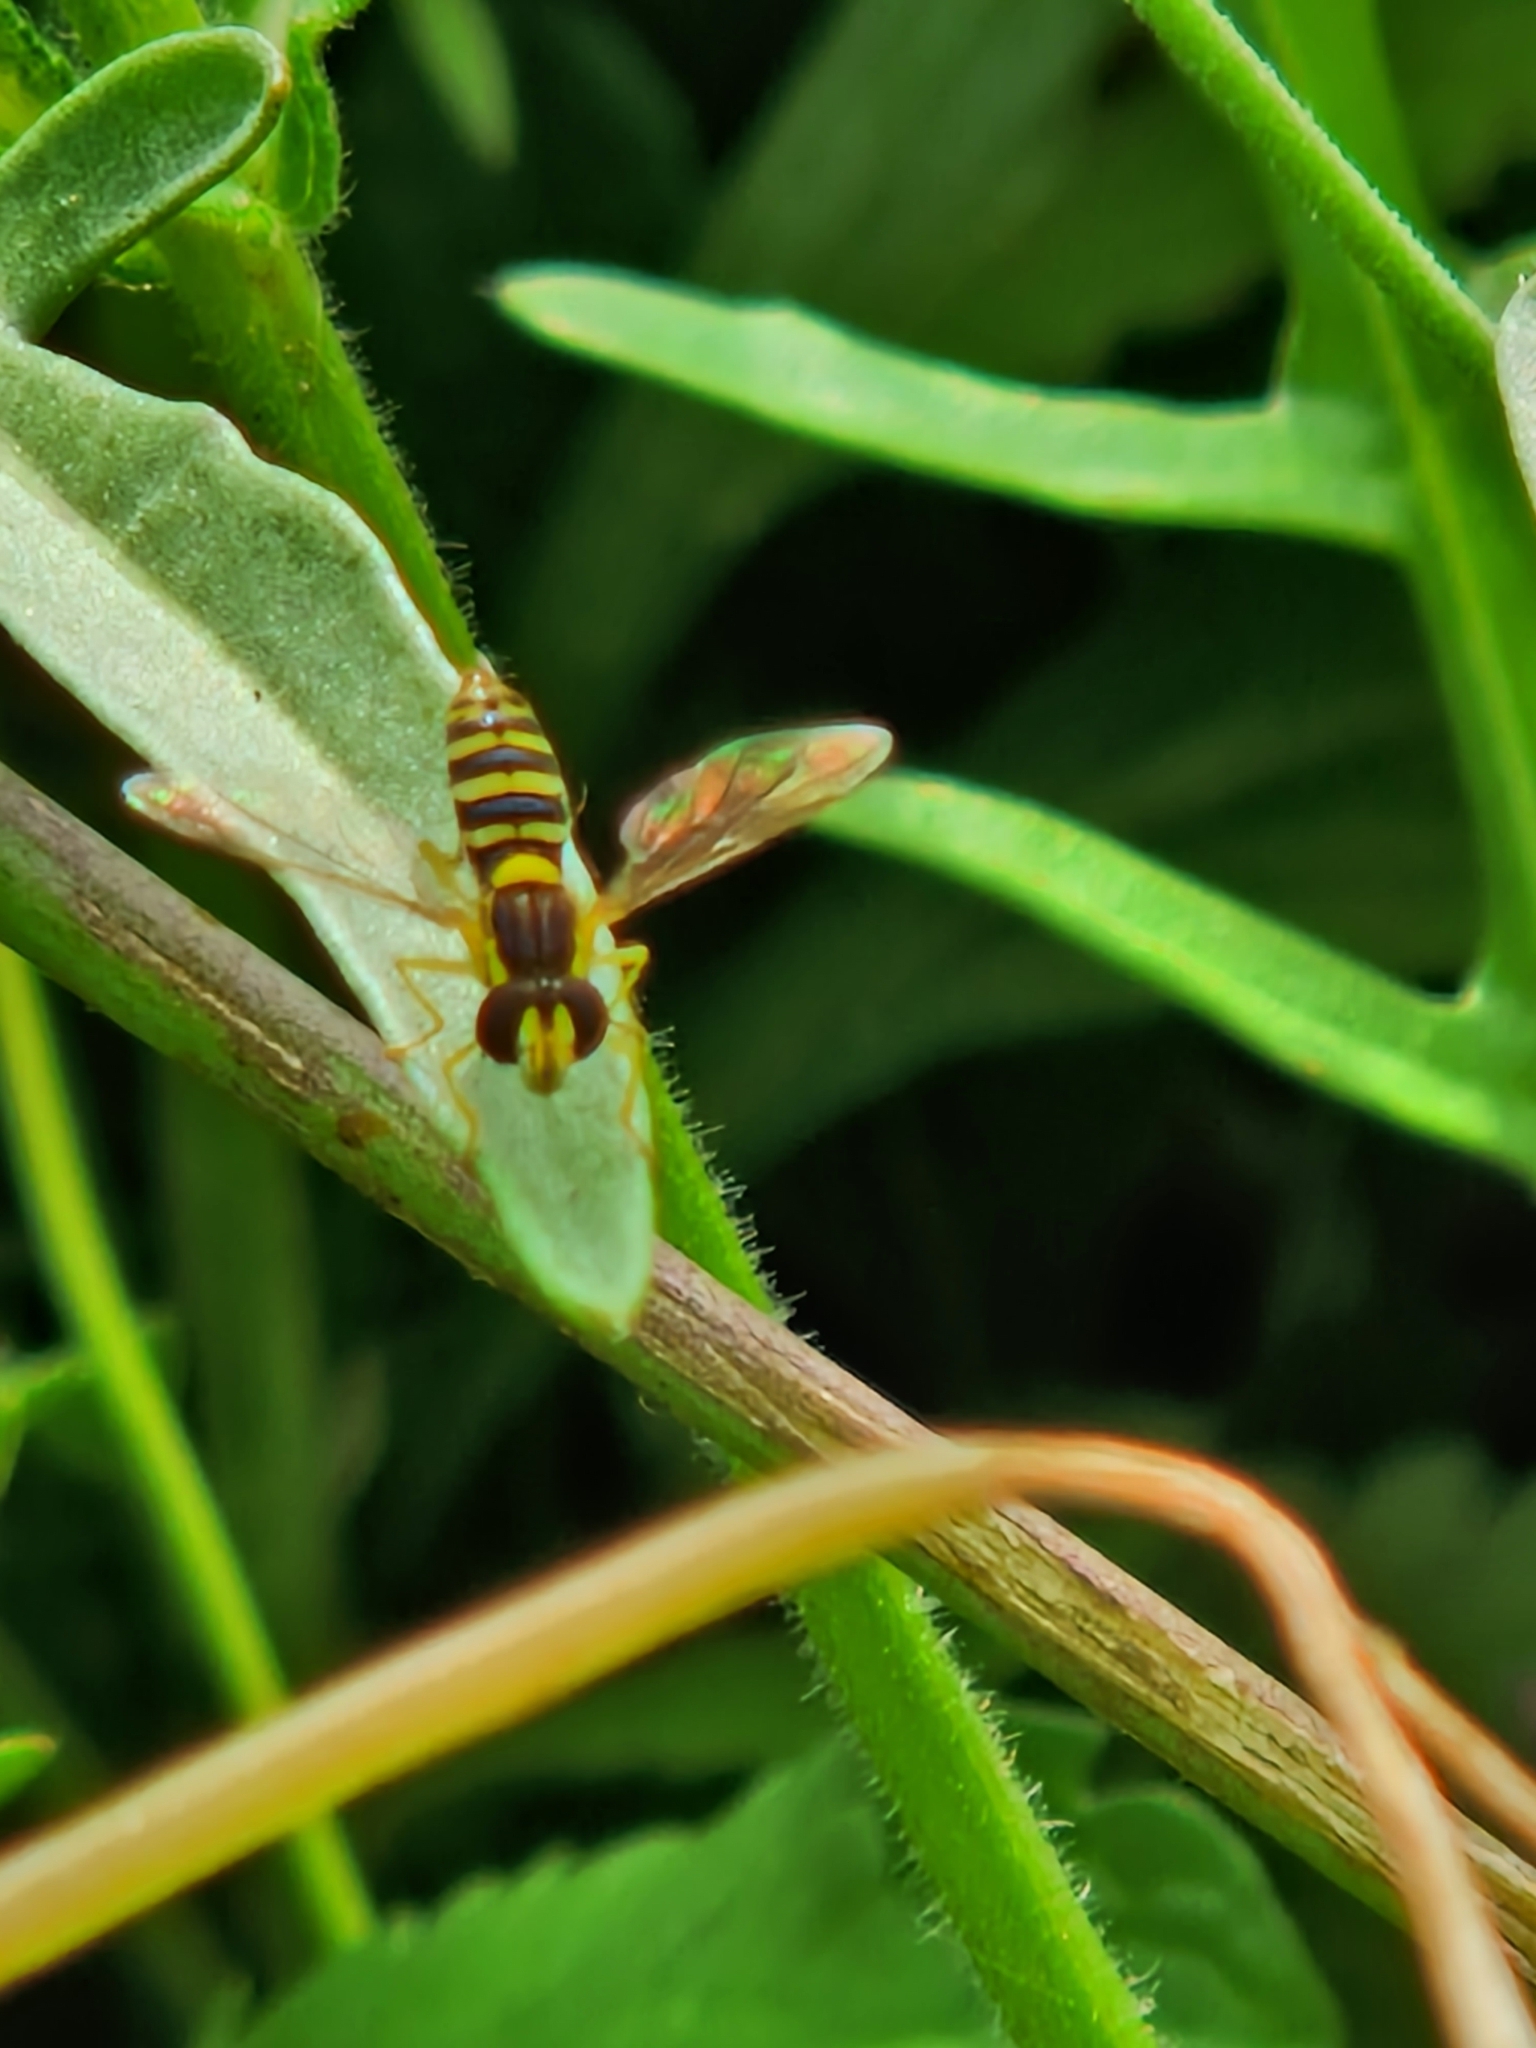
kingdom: Animalia
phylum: Arthropoda
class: Insecta
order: Diptera
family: Syrphidae
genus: Sphaerophoria
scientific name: Sphaerophoria
